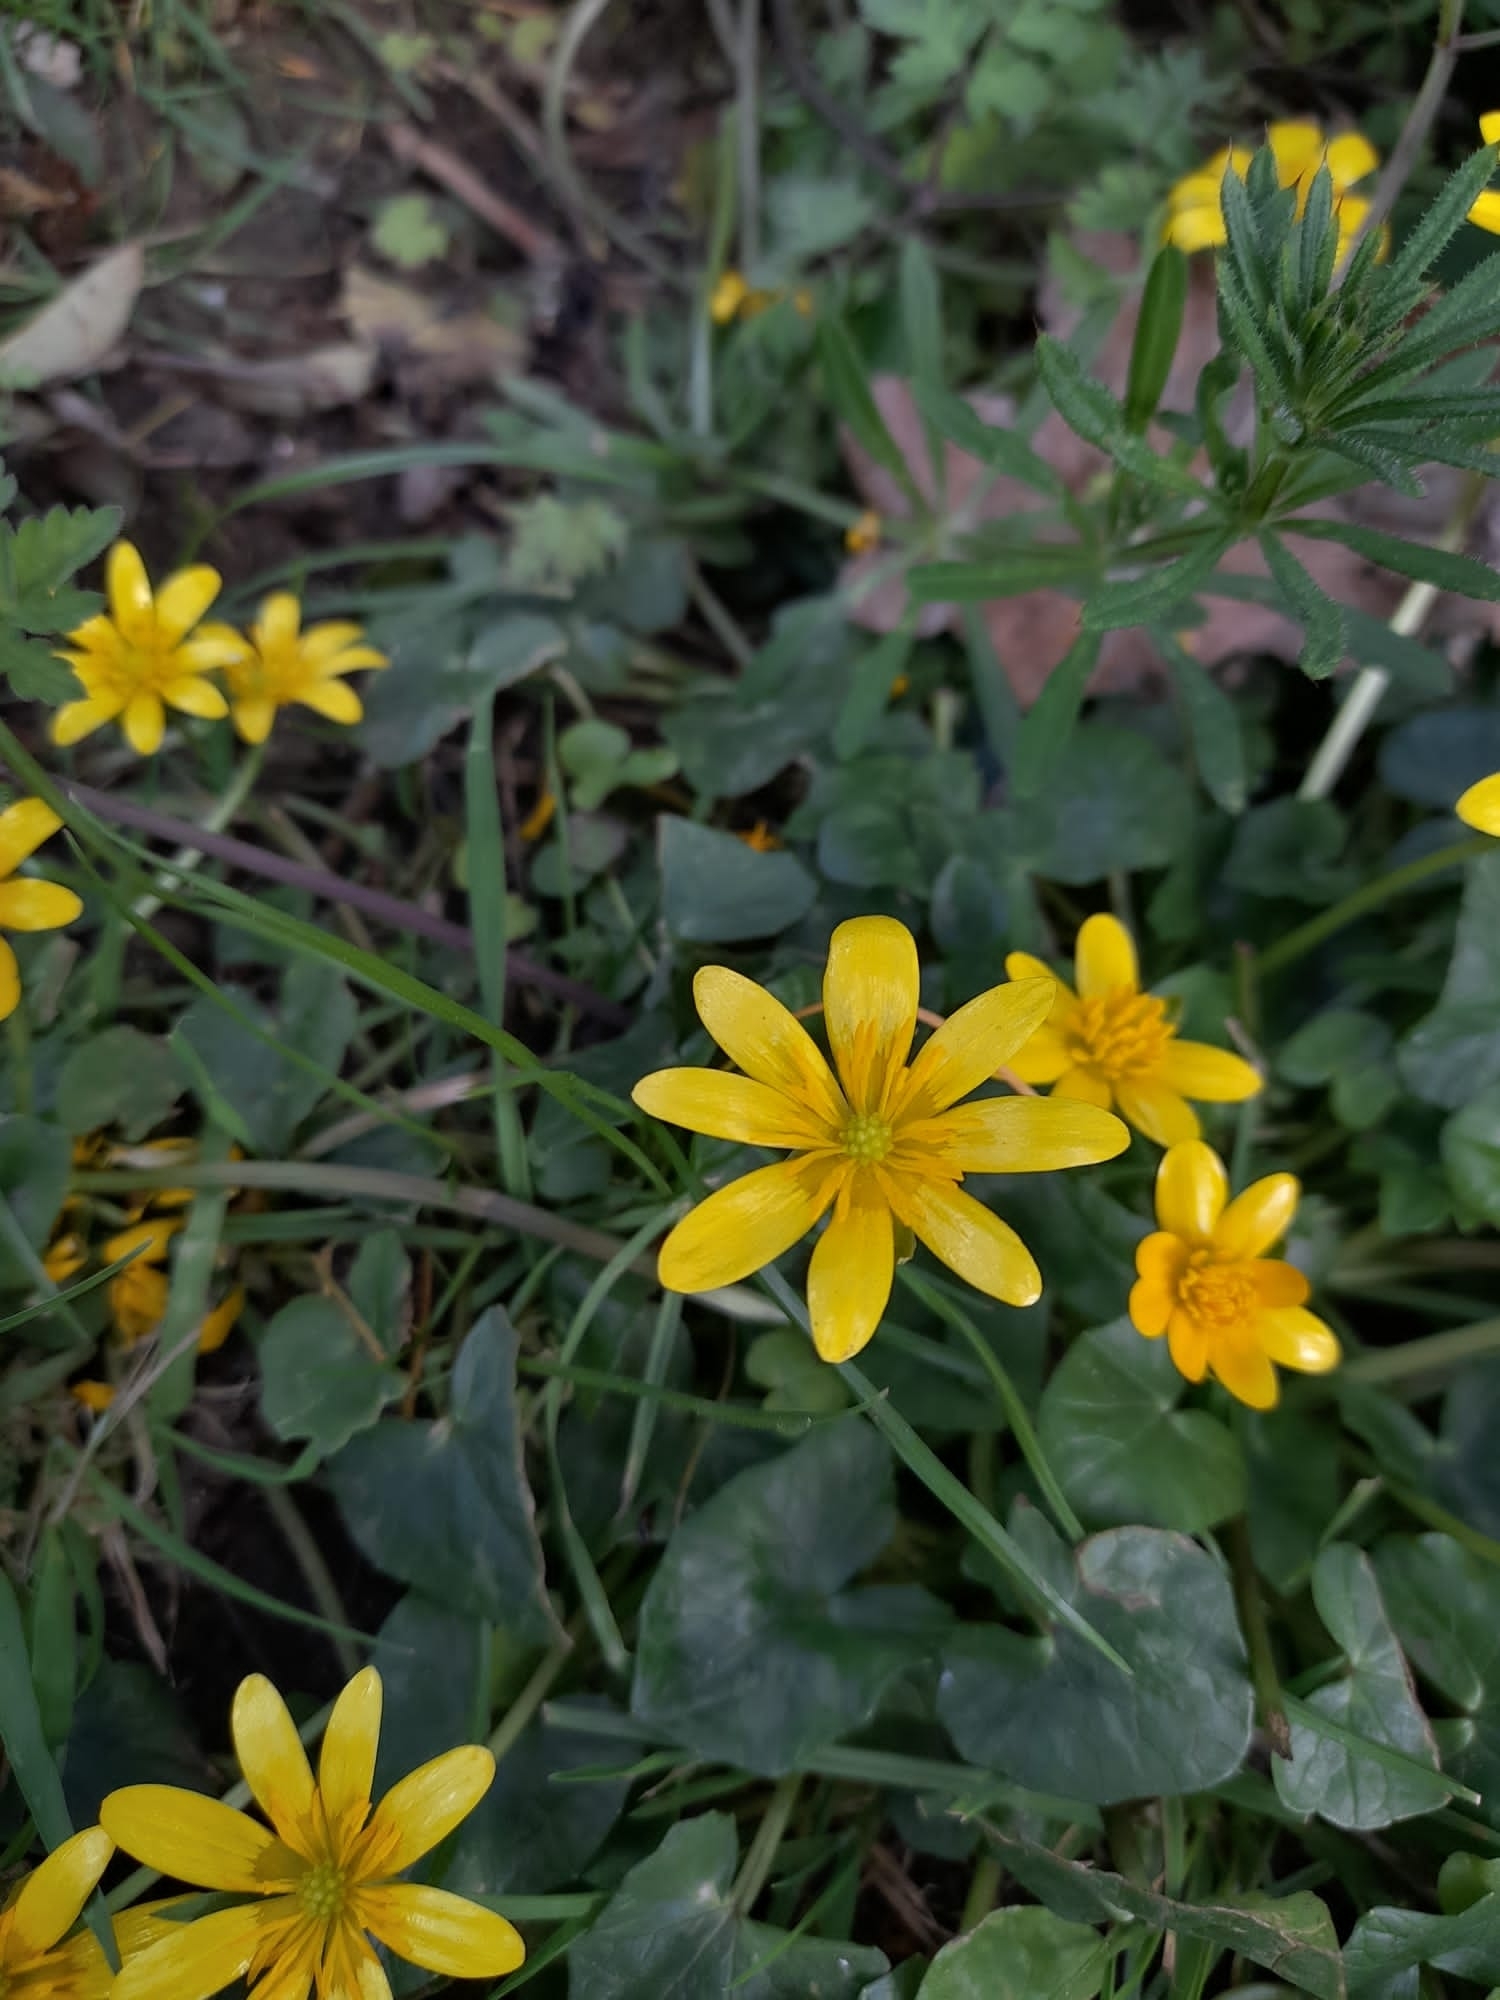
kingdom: Plantae
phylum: Tracheophyta
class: Magnoliopsida
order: Ranunculales
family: Ranunculaceae
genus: Ficaria
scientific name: Ficaria verna
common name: Lesser celandine
